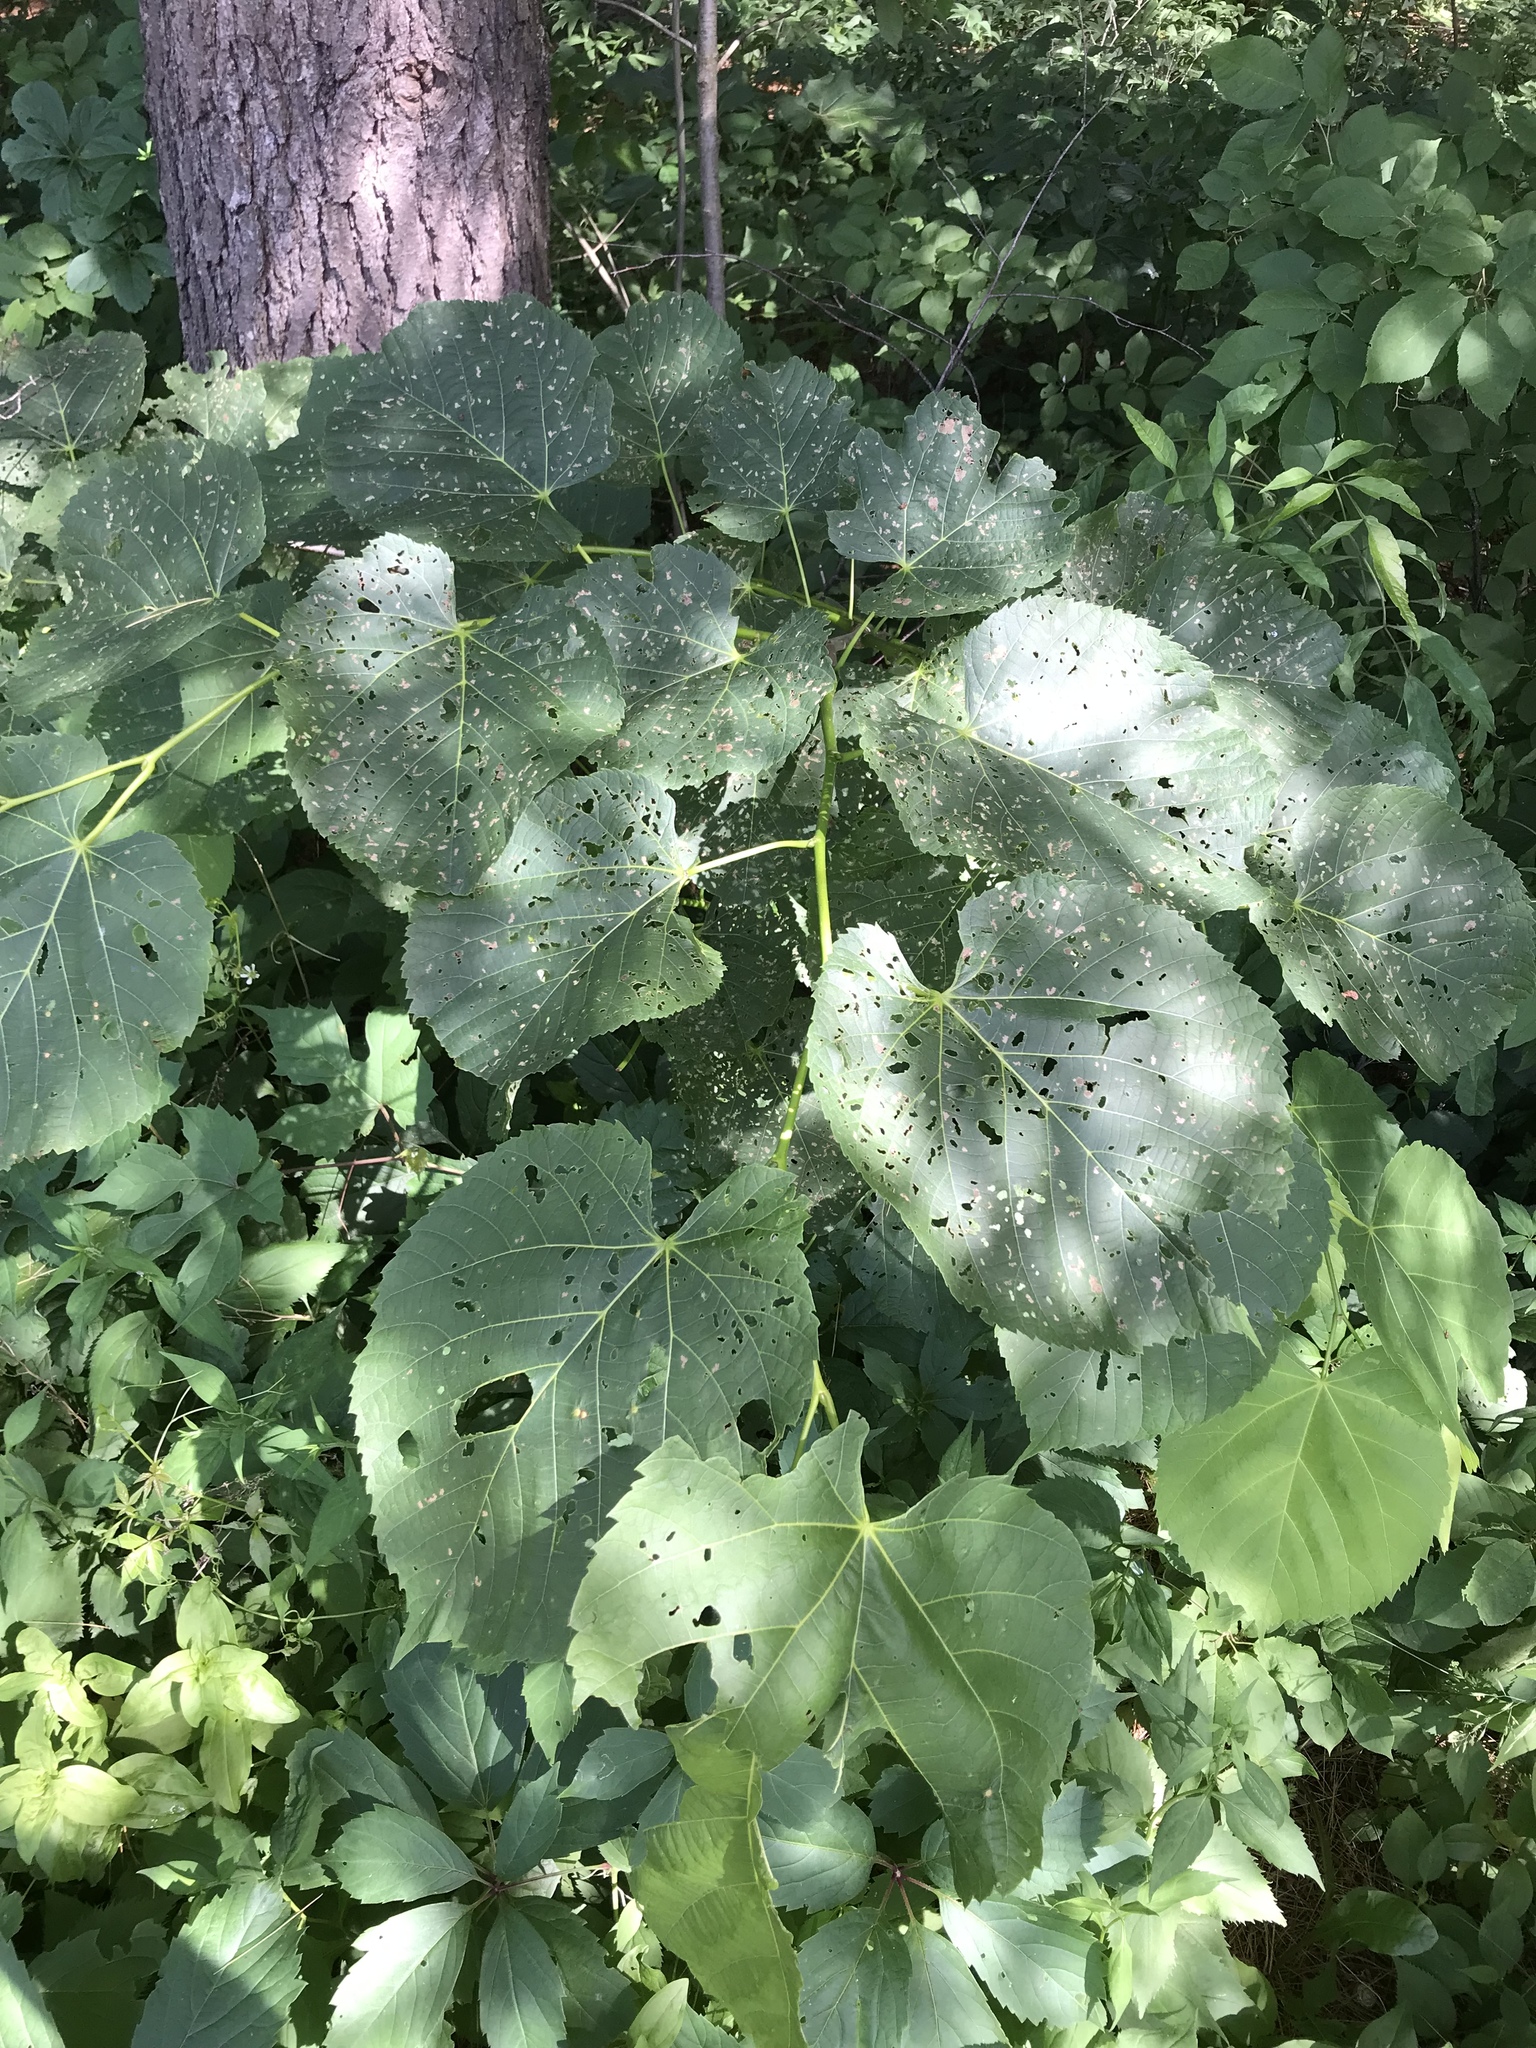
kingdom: Plantae
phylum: Tracheophyta
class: Magnoliopsida
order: Malvales
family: Malvaceae
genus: Tilia
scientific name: Tilia americana
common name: Basswood
